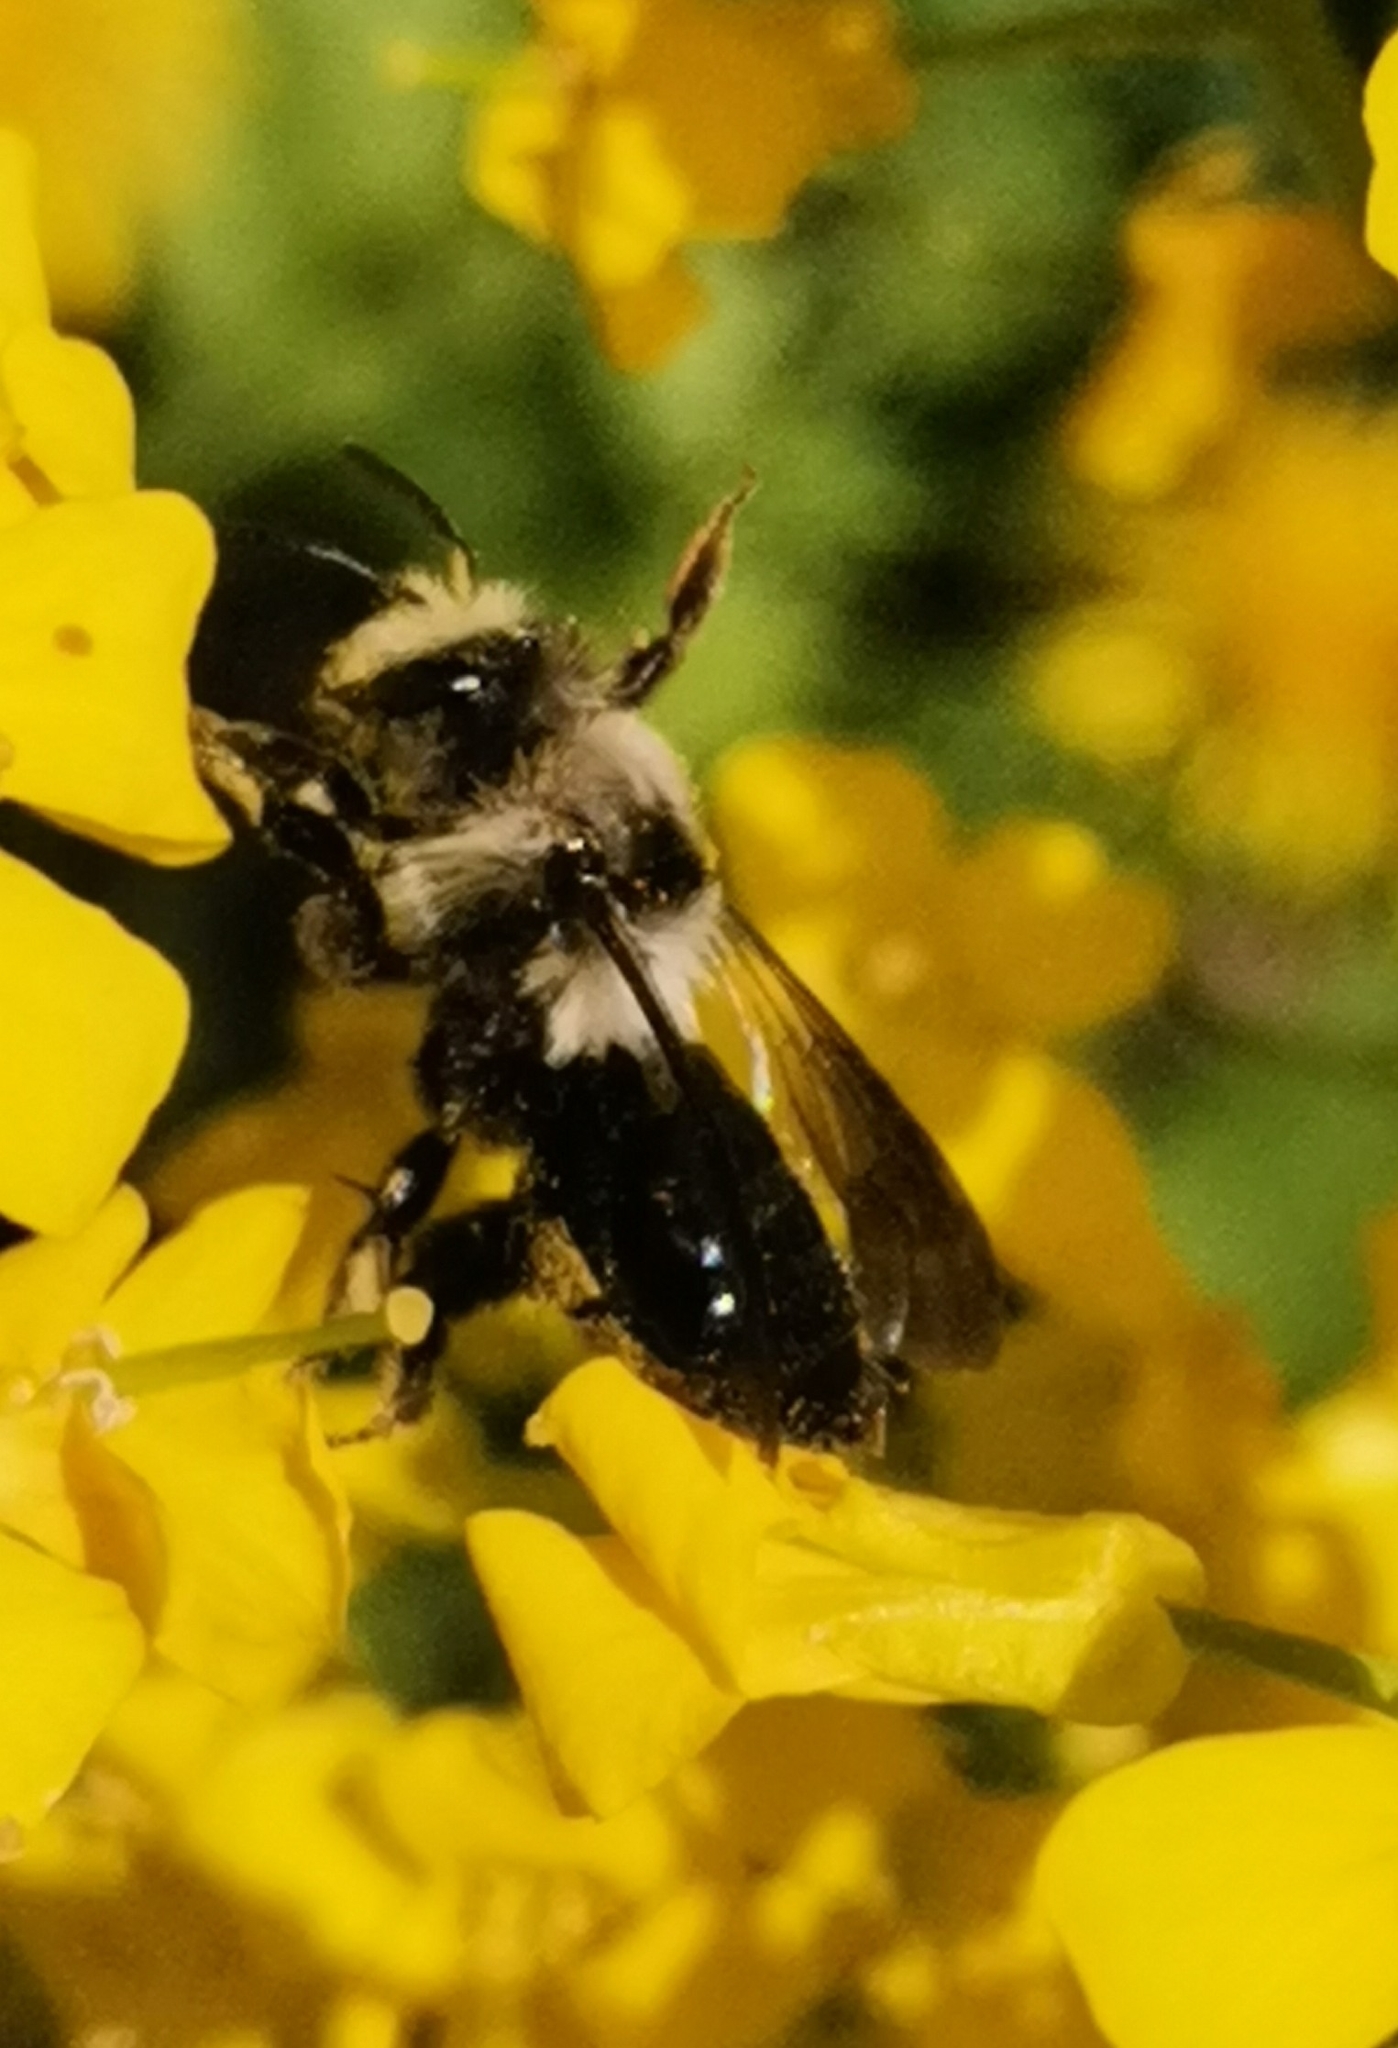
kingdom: Animalia
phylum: Arthropoda
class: Insecta
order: Hymenoptera
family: Andrenidae
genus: Andrena
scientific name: Andrena cineraria
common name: Ashy mining bee
